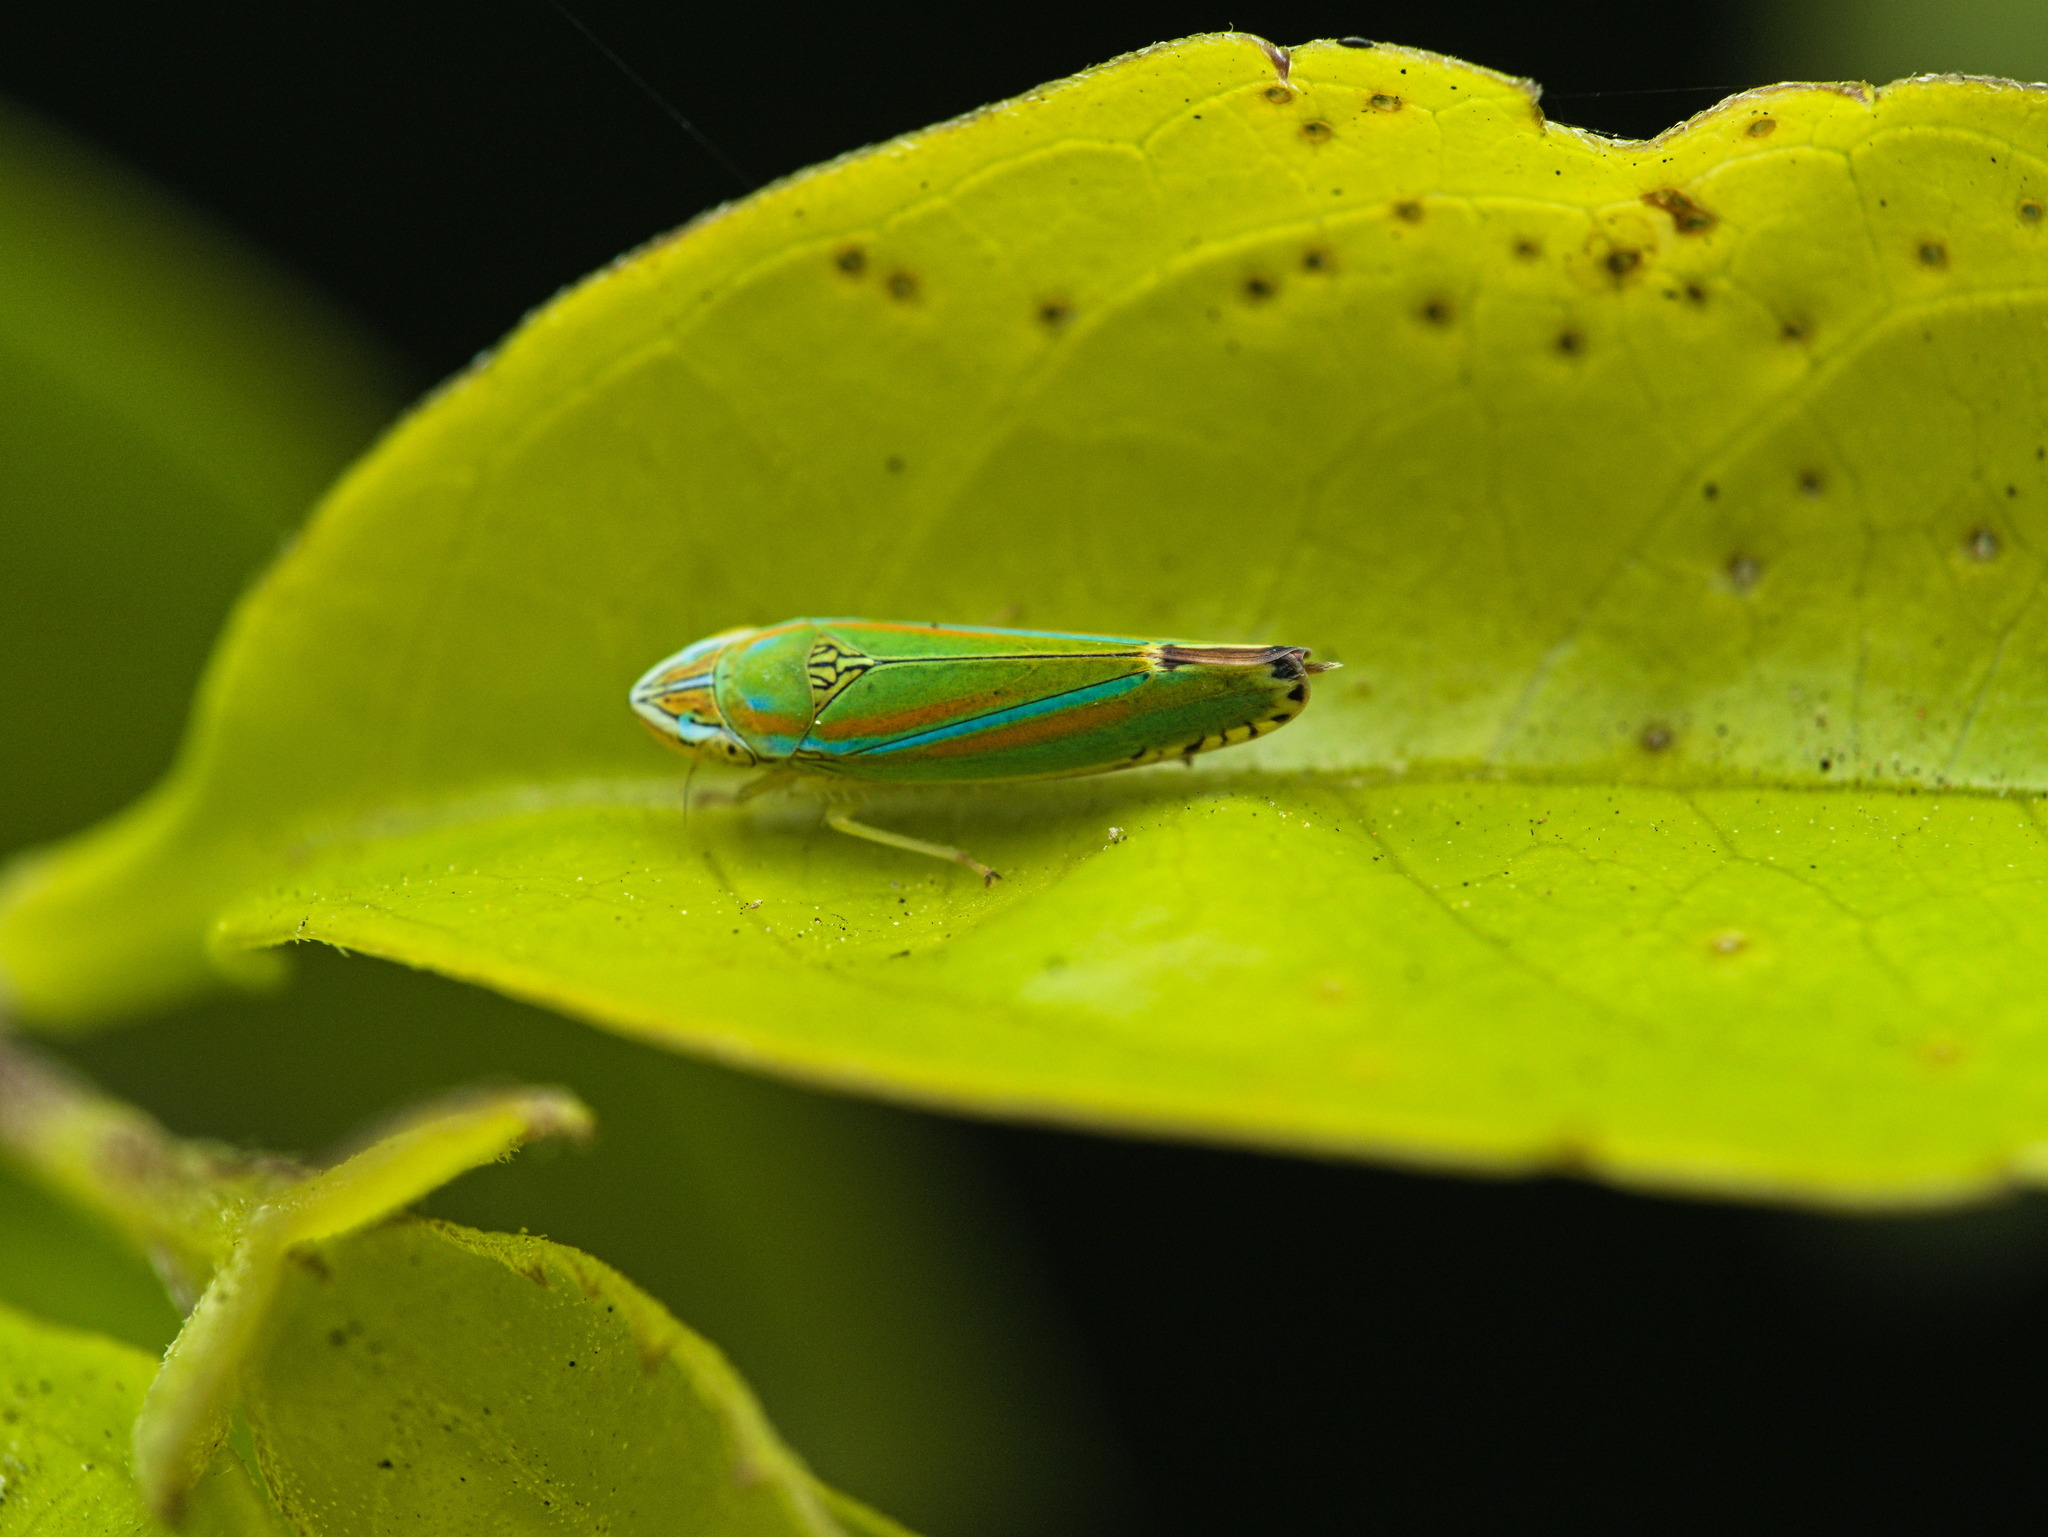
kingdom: Animalia
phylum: Arthropoda
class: Insecta
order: Hemiptera
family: Cicadellidae
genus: Graphocephala
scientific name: Graphocephala versuta
